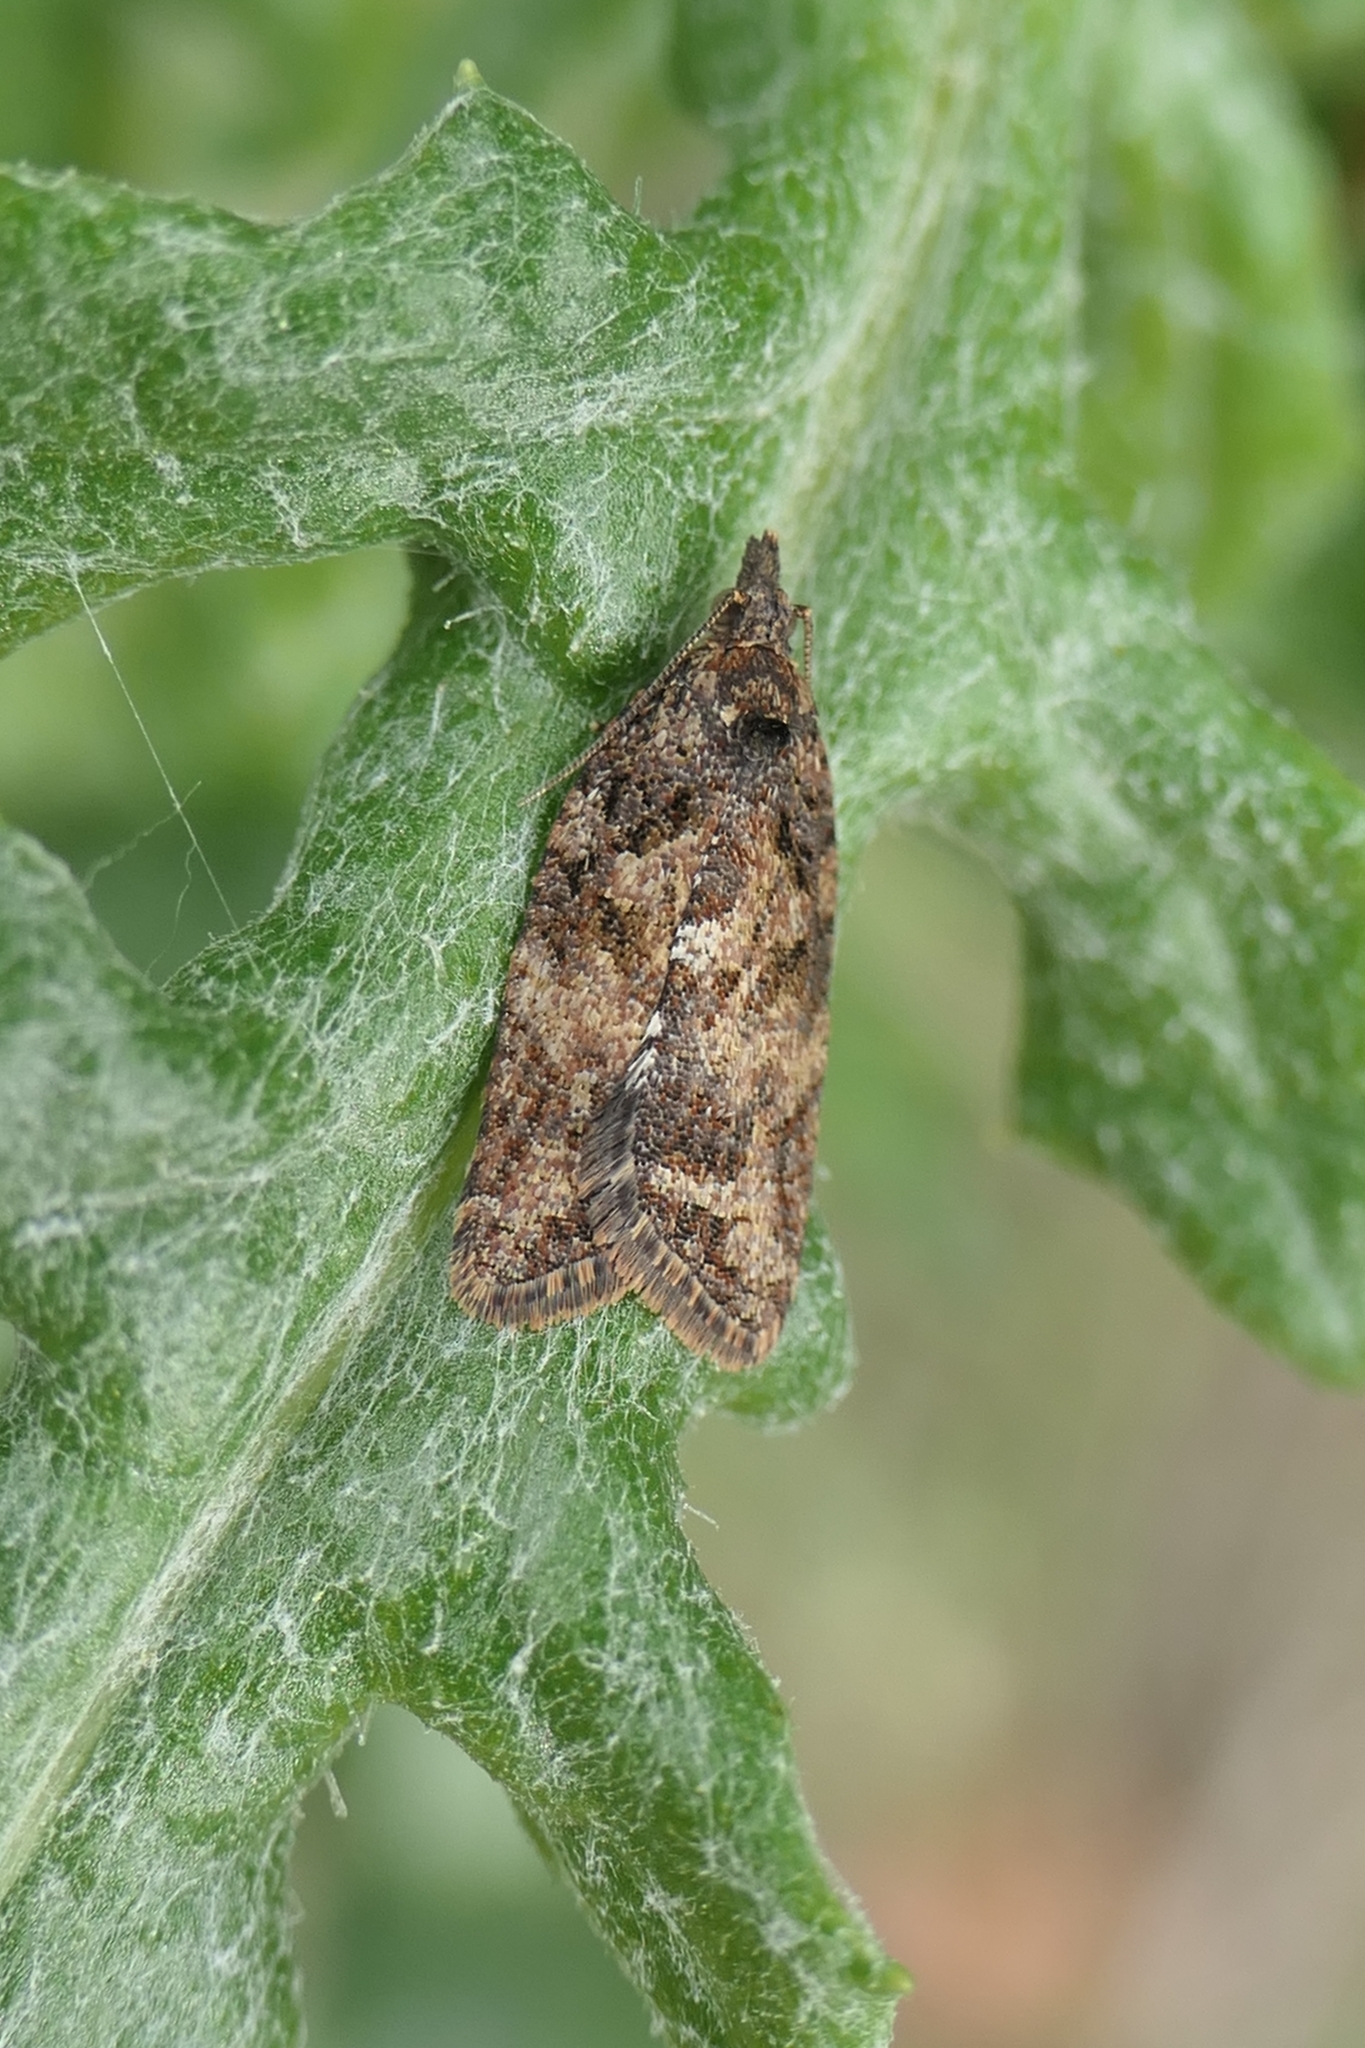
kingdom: Animalia
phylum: Arthropoda
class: Insecta
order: Lepidoptera
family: Tortricidae
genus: Capua
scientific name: Capua intractana
